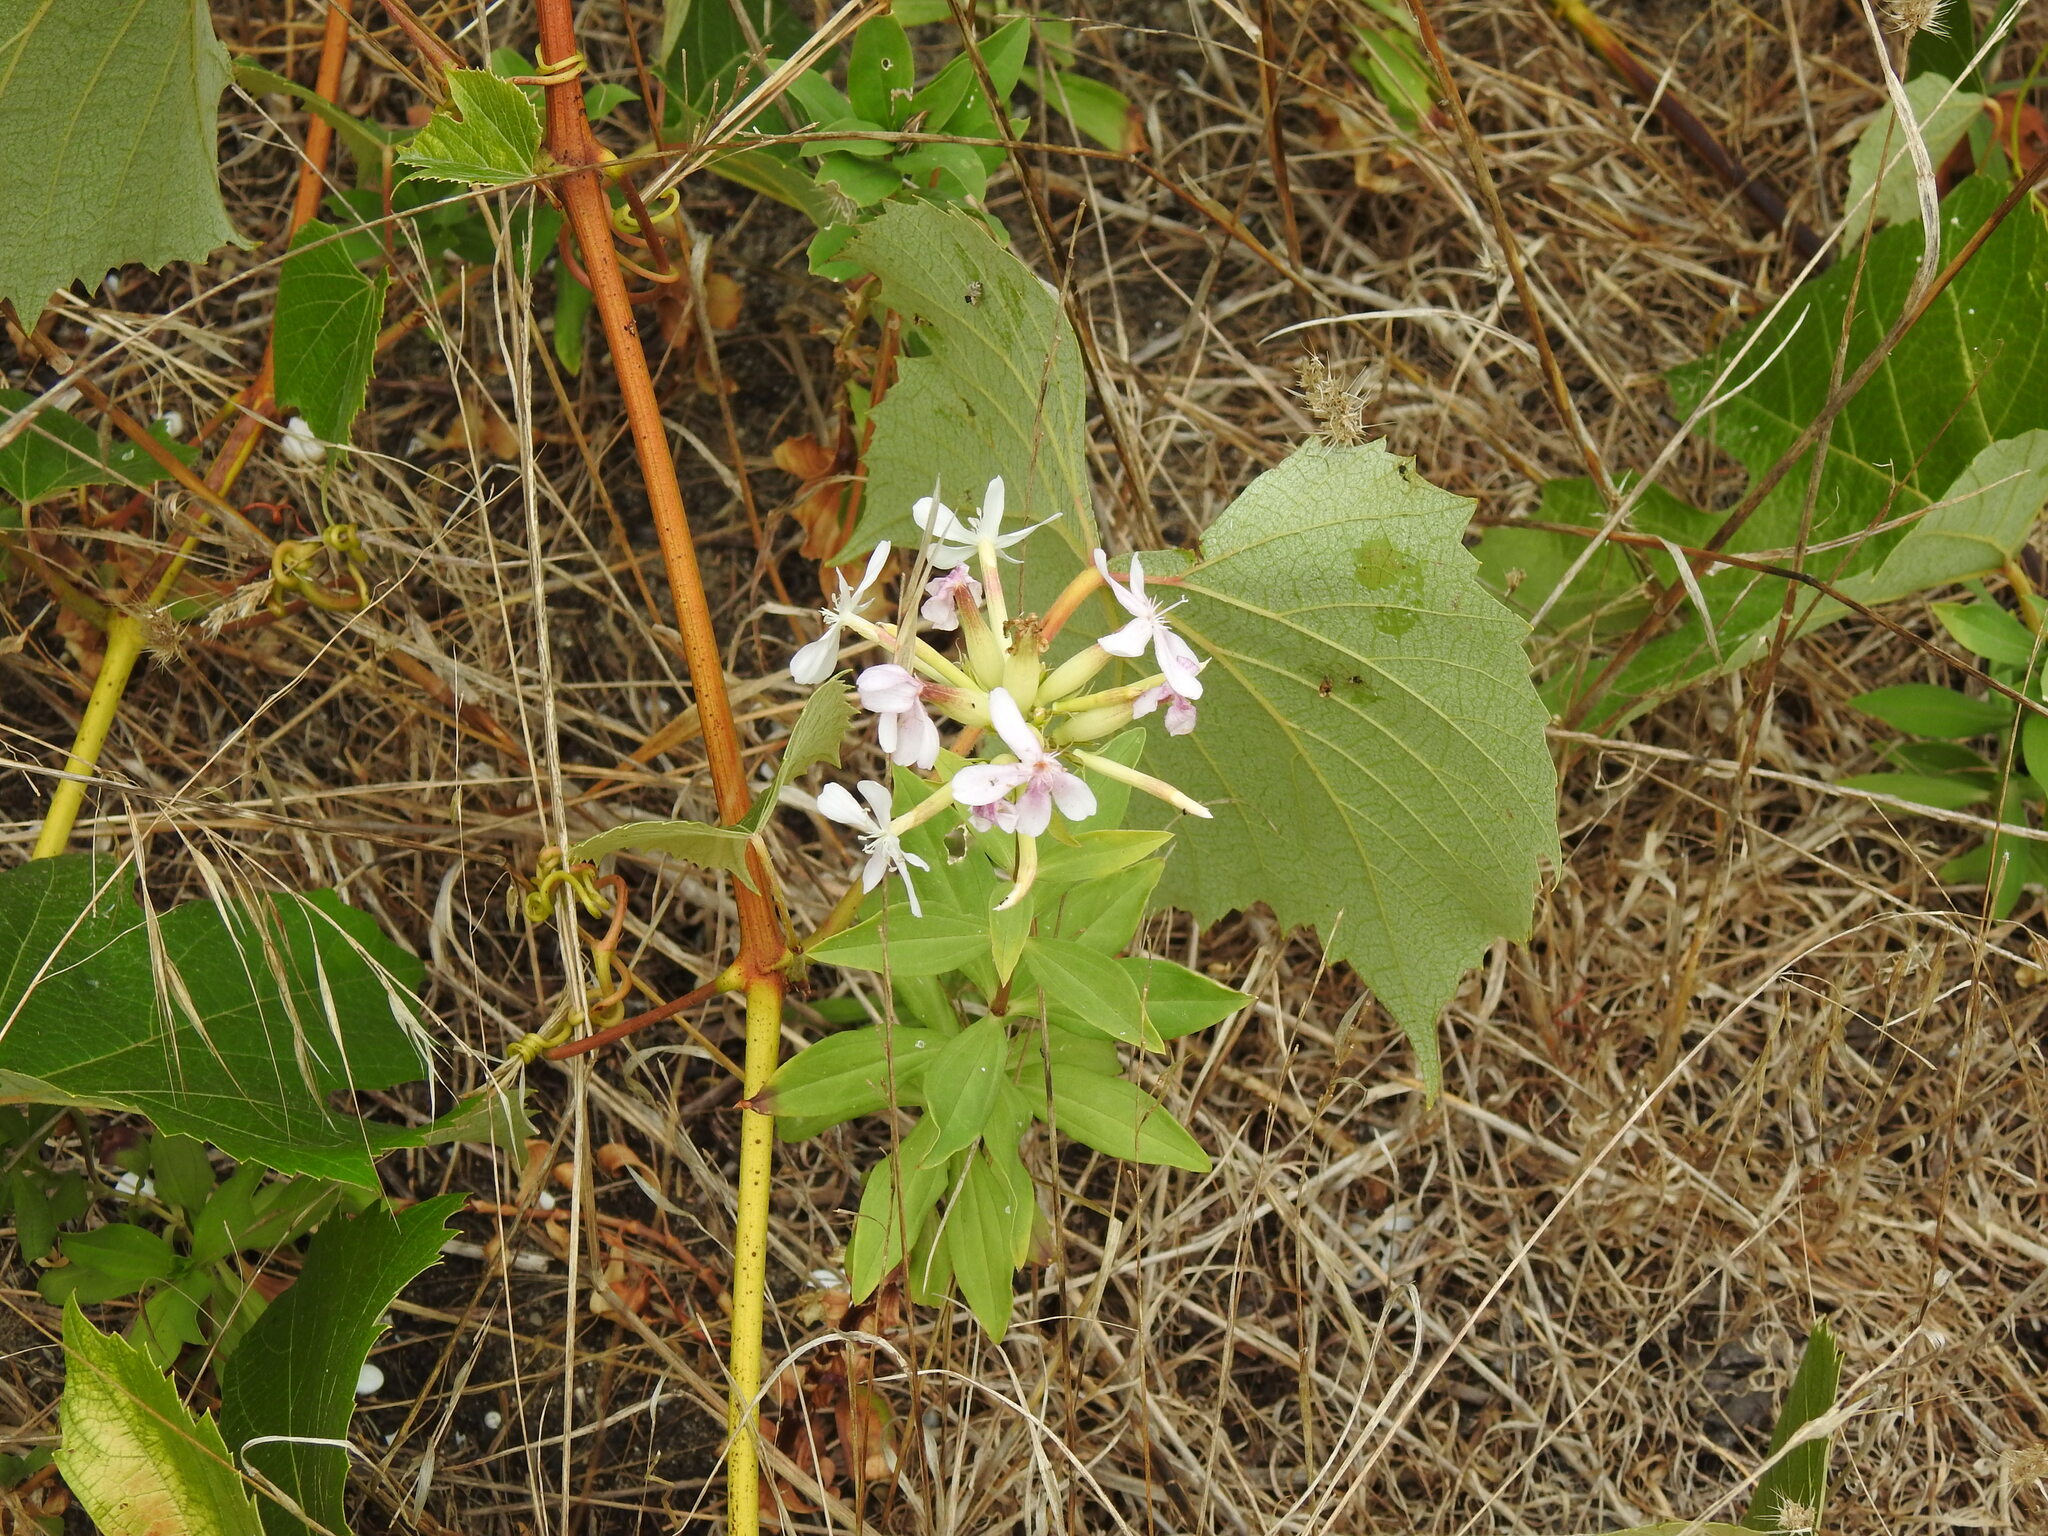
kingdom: Plantae
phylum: Tracheophyta
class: Magnoliopsida
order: Caryophyllales
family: Caryophyllaceae
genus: Saponaria
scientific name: Saponaria officinalis
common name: Soapwort
